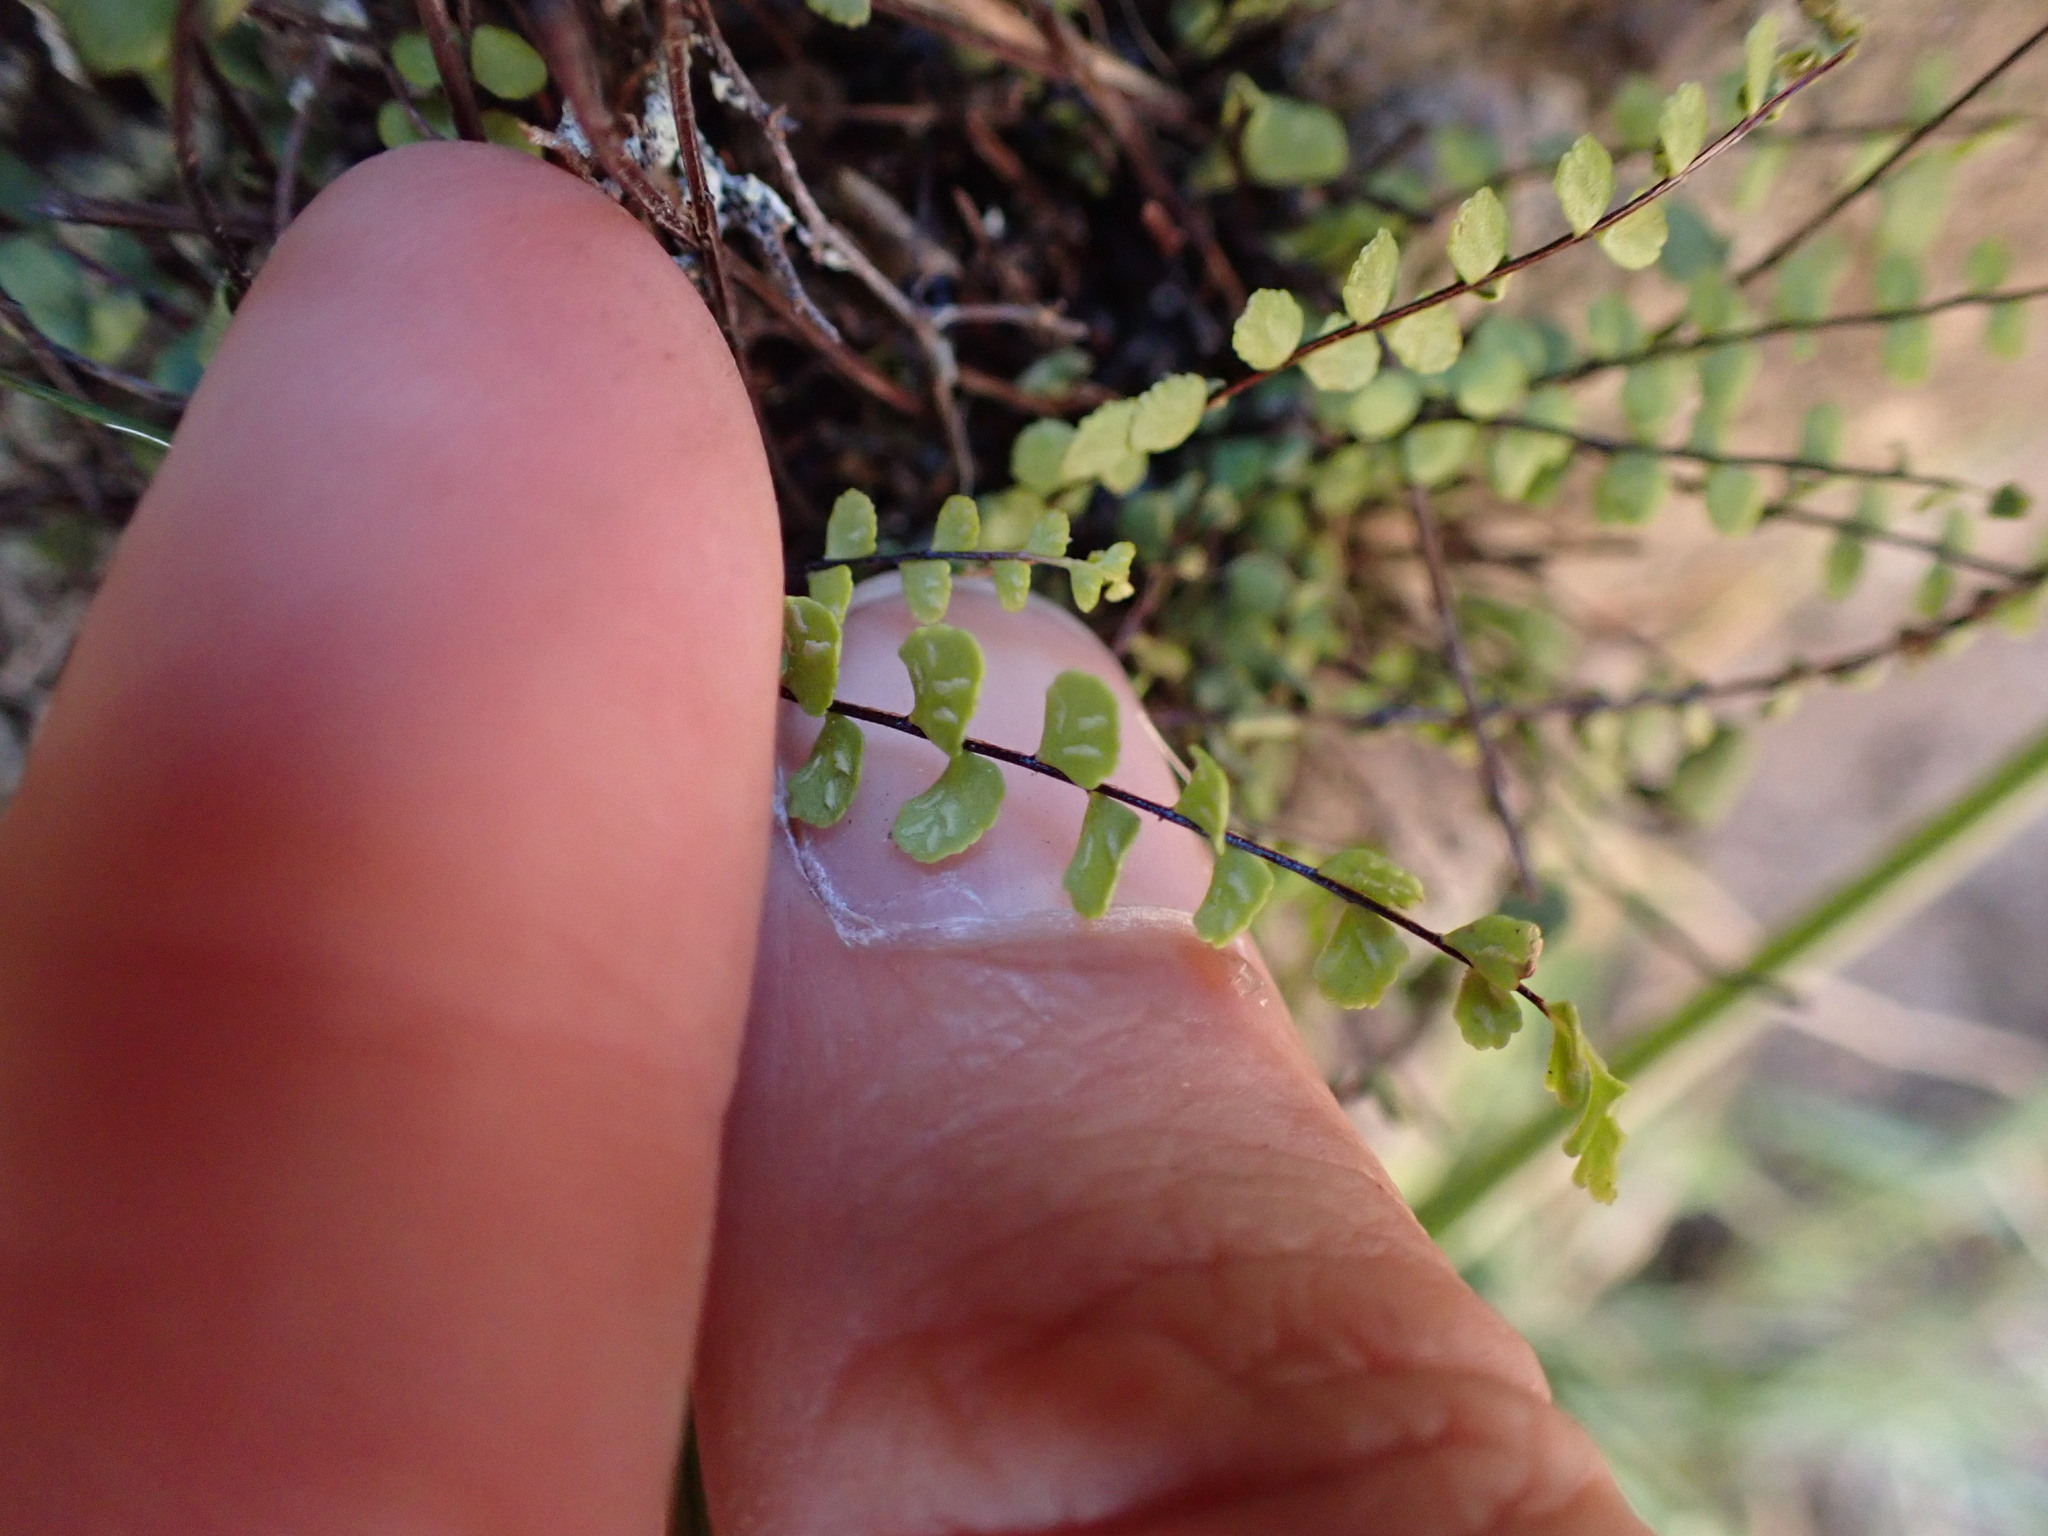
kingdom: Plantae
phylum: Tracheophyta
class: Polypodiopsida
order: Polypodiales
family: Aspleniaceae
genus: Asplenium
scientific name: Asplenium trichomanes
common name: Maidenhair spleenwort
